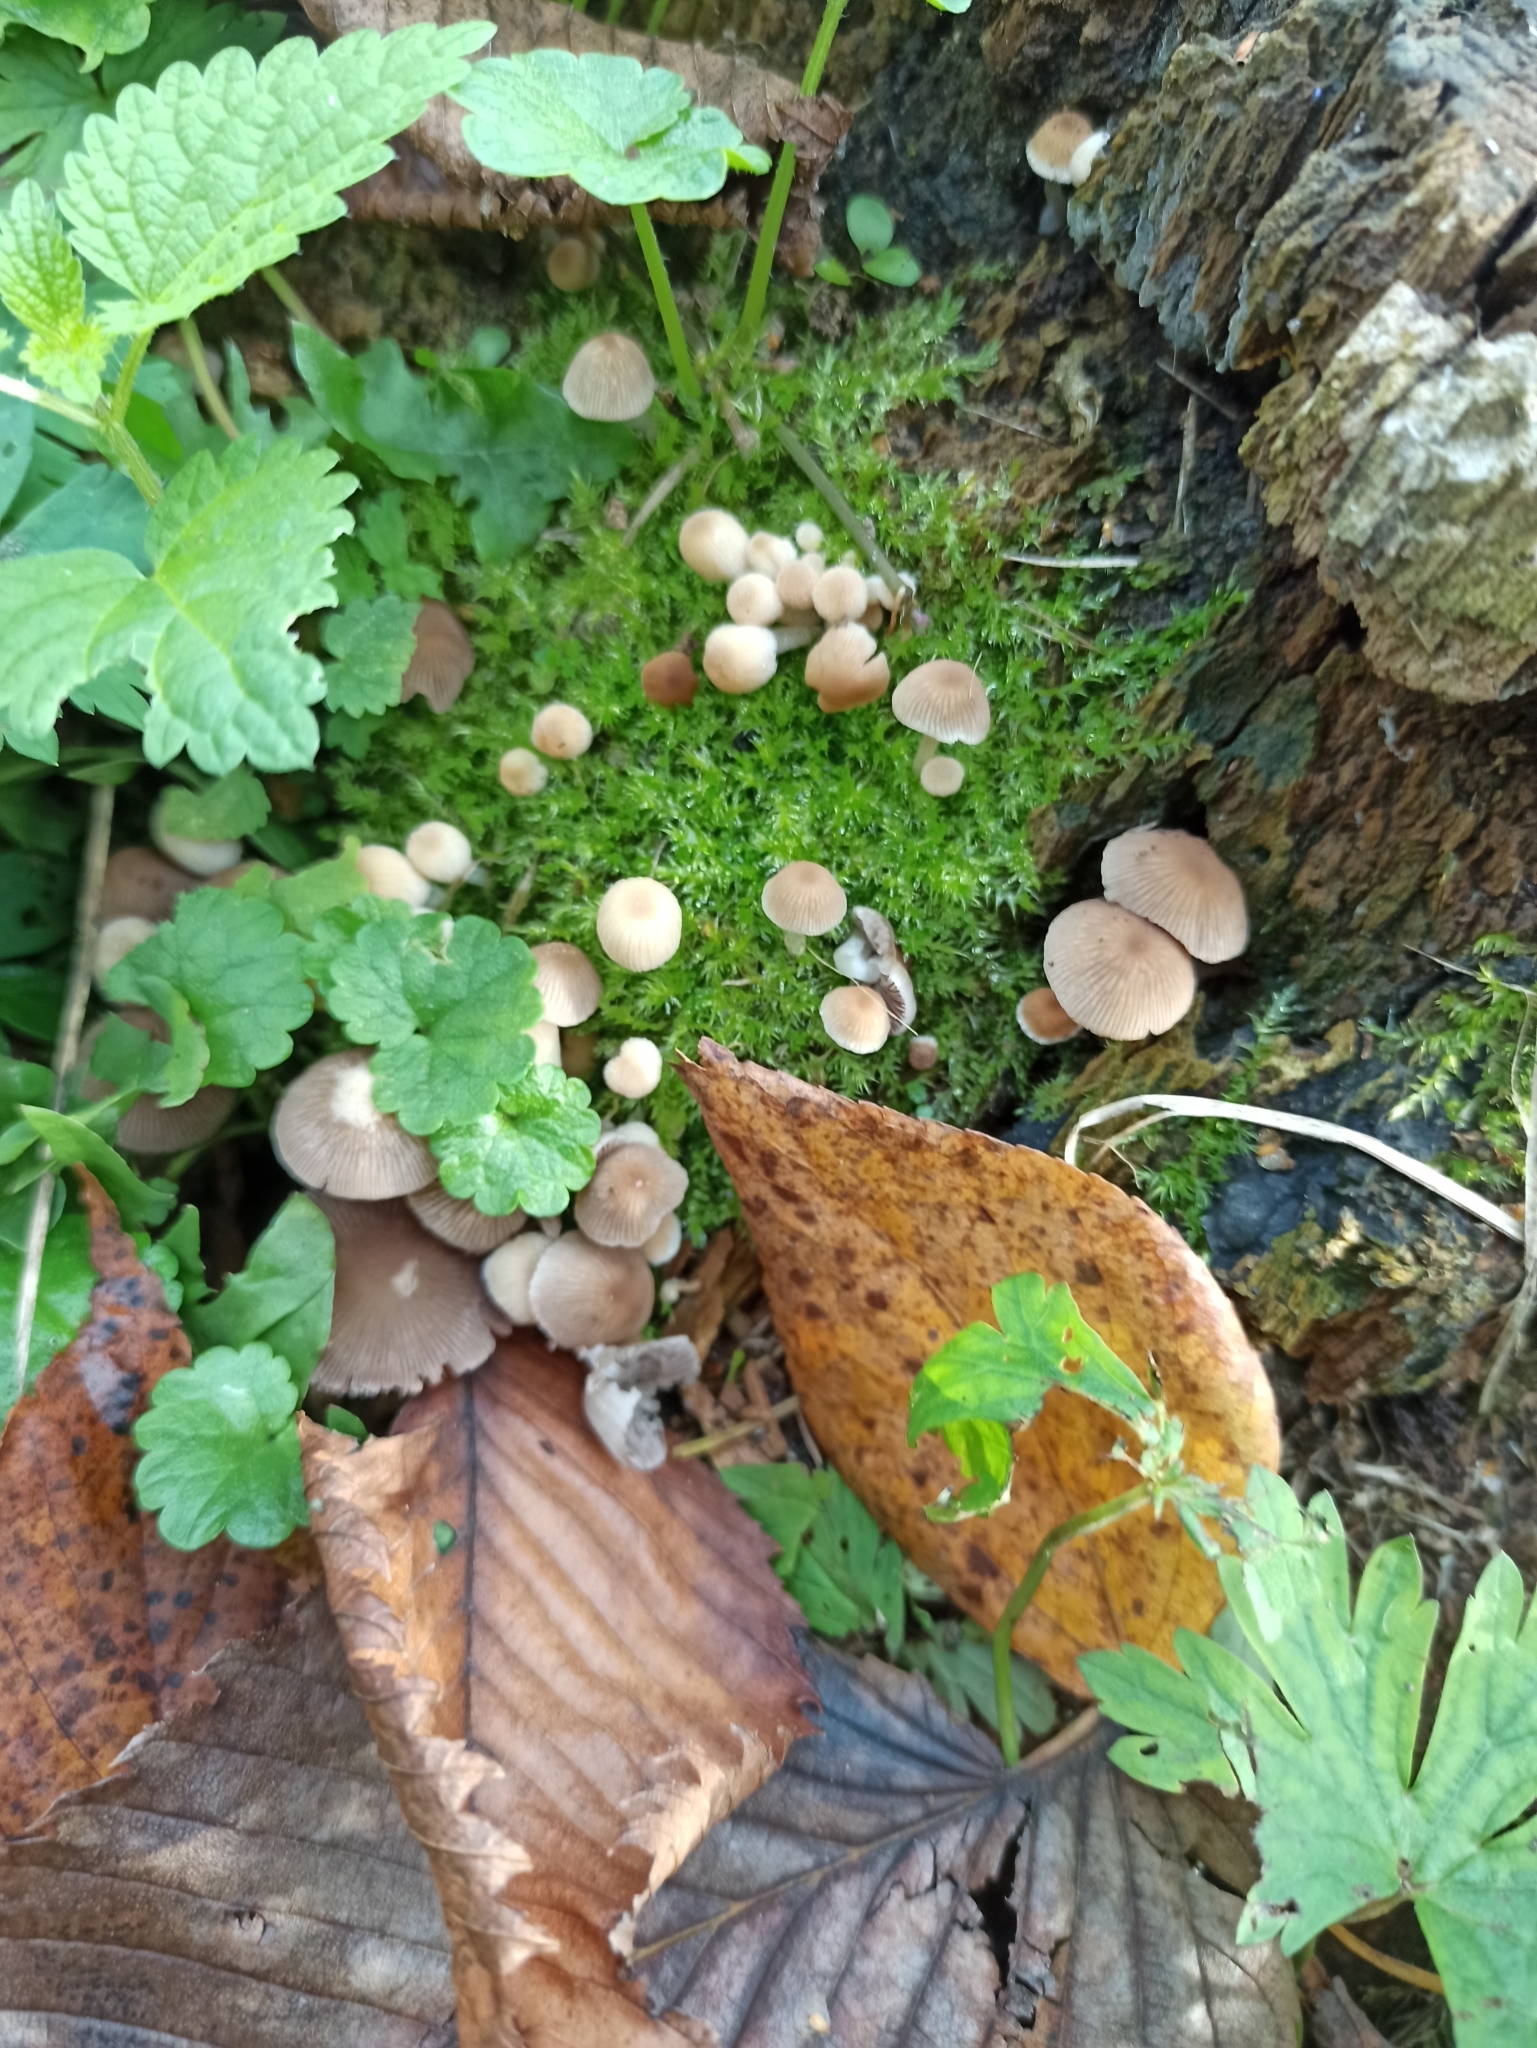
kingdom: Fungi
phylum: Basidiomycota
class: Agaricomycetes
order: Agaricales
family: Psathyrellaceae
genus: Psathyrella
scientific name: Psathyrella pygmaea
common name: Pygmy brittlestem
